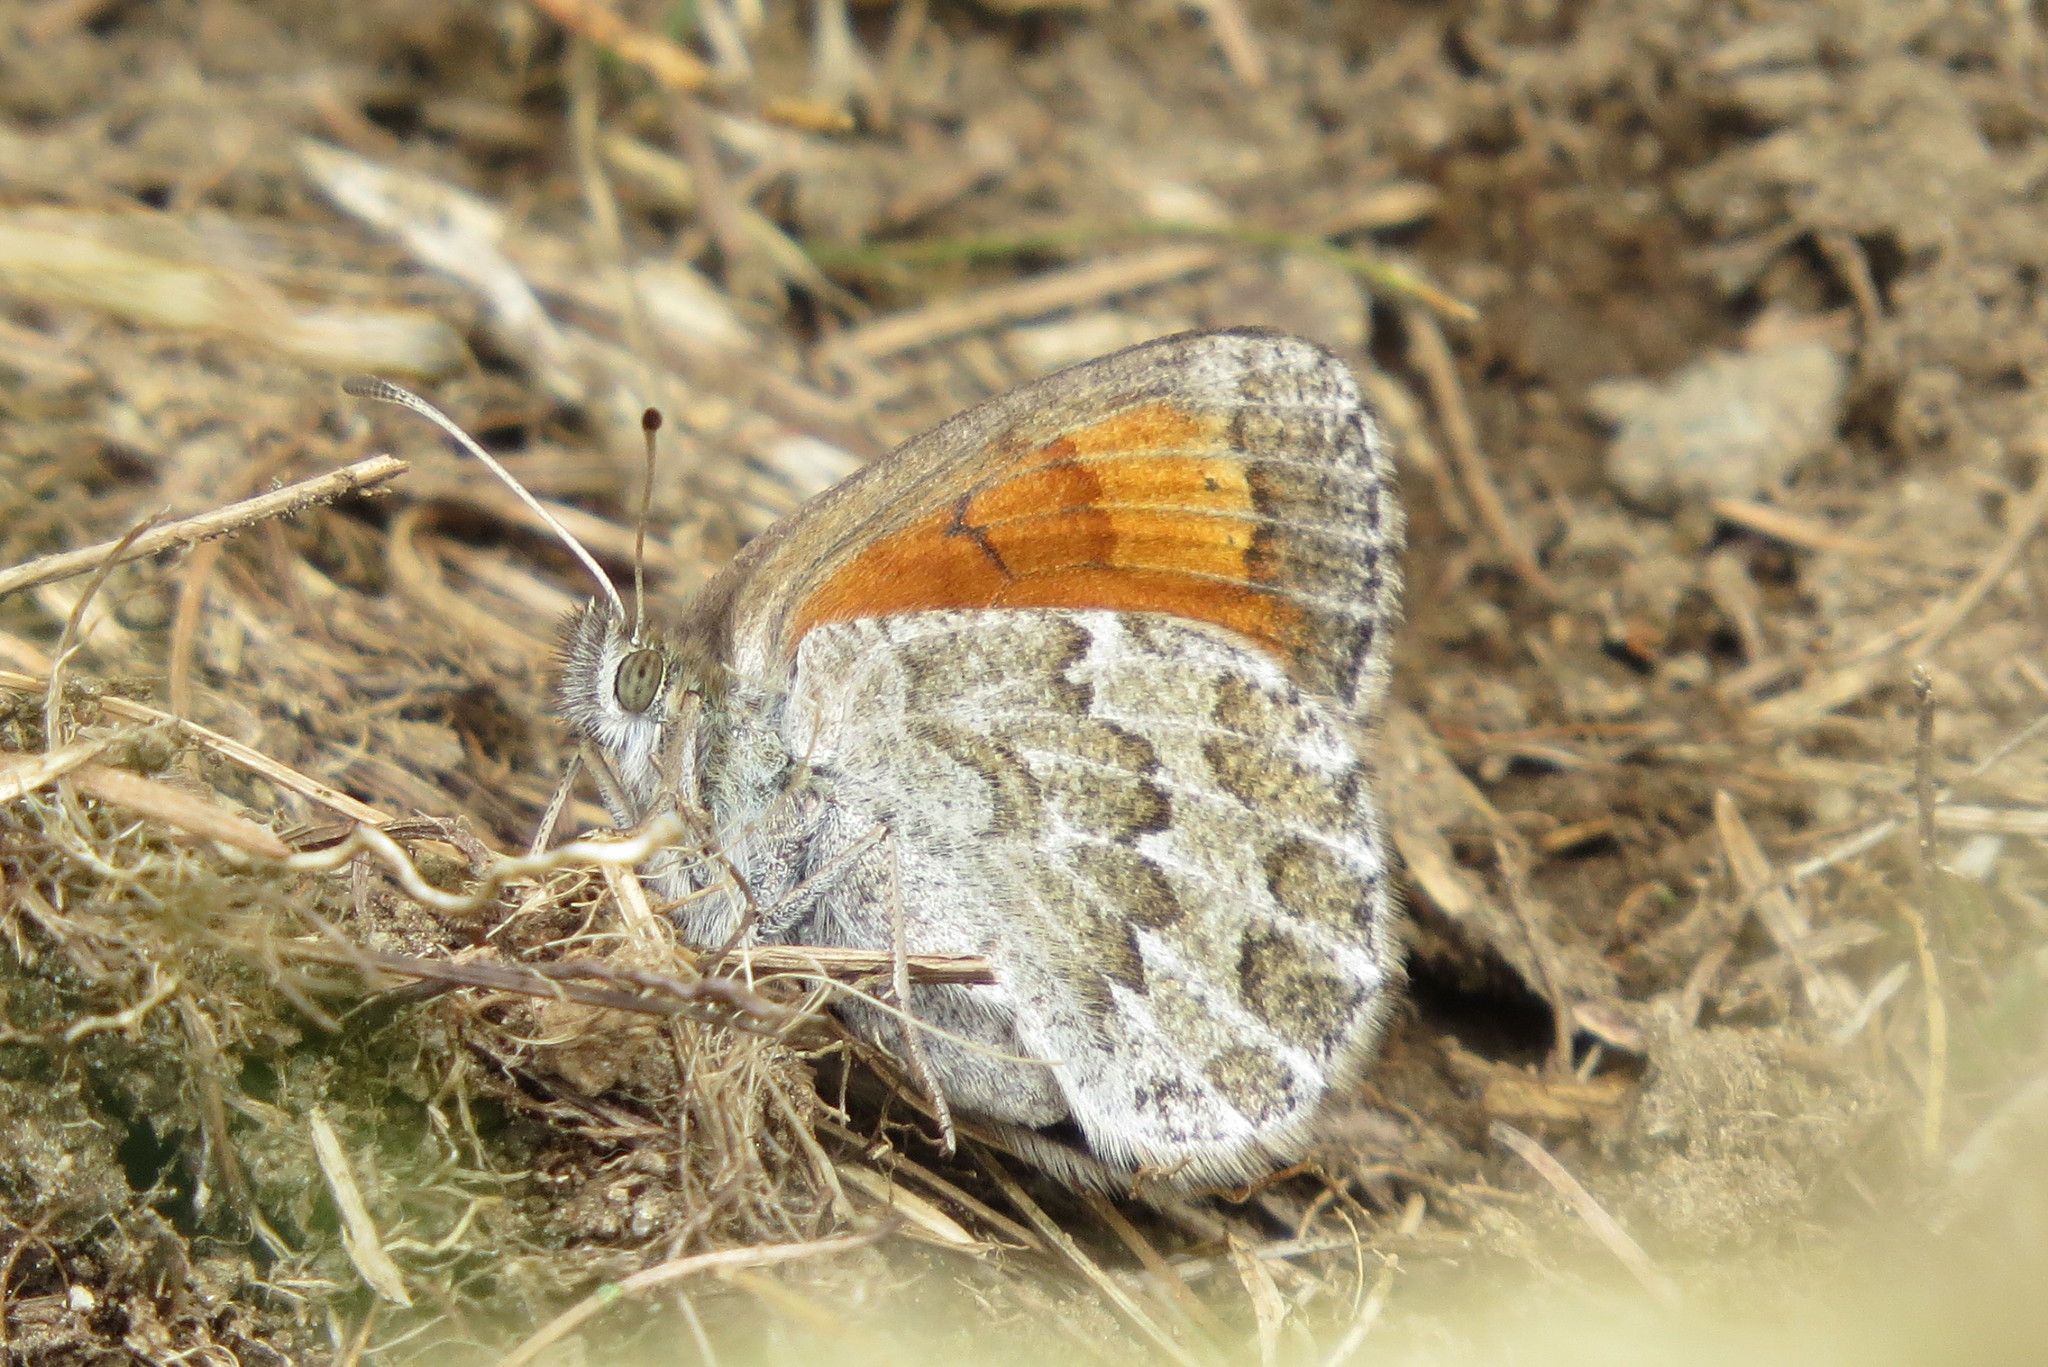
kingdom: Animalia
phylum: Arthropoda
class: Insecta
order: Lepidoptera
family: Nymphalidae
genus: Erebia
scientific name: Erebia tyndarus
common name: Swiss brassy ringlet
